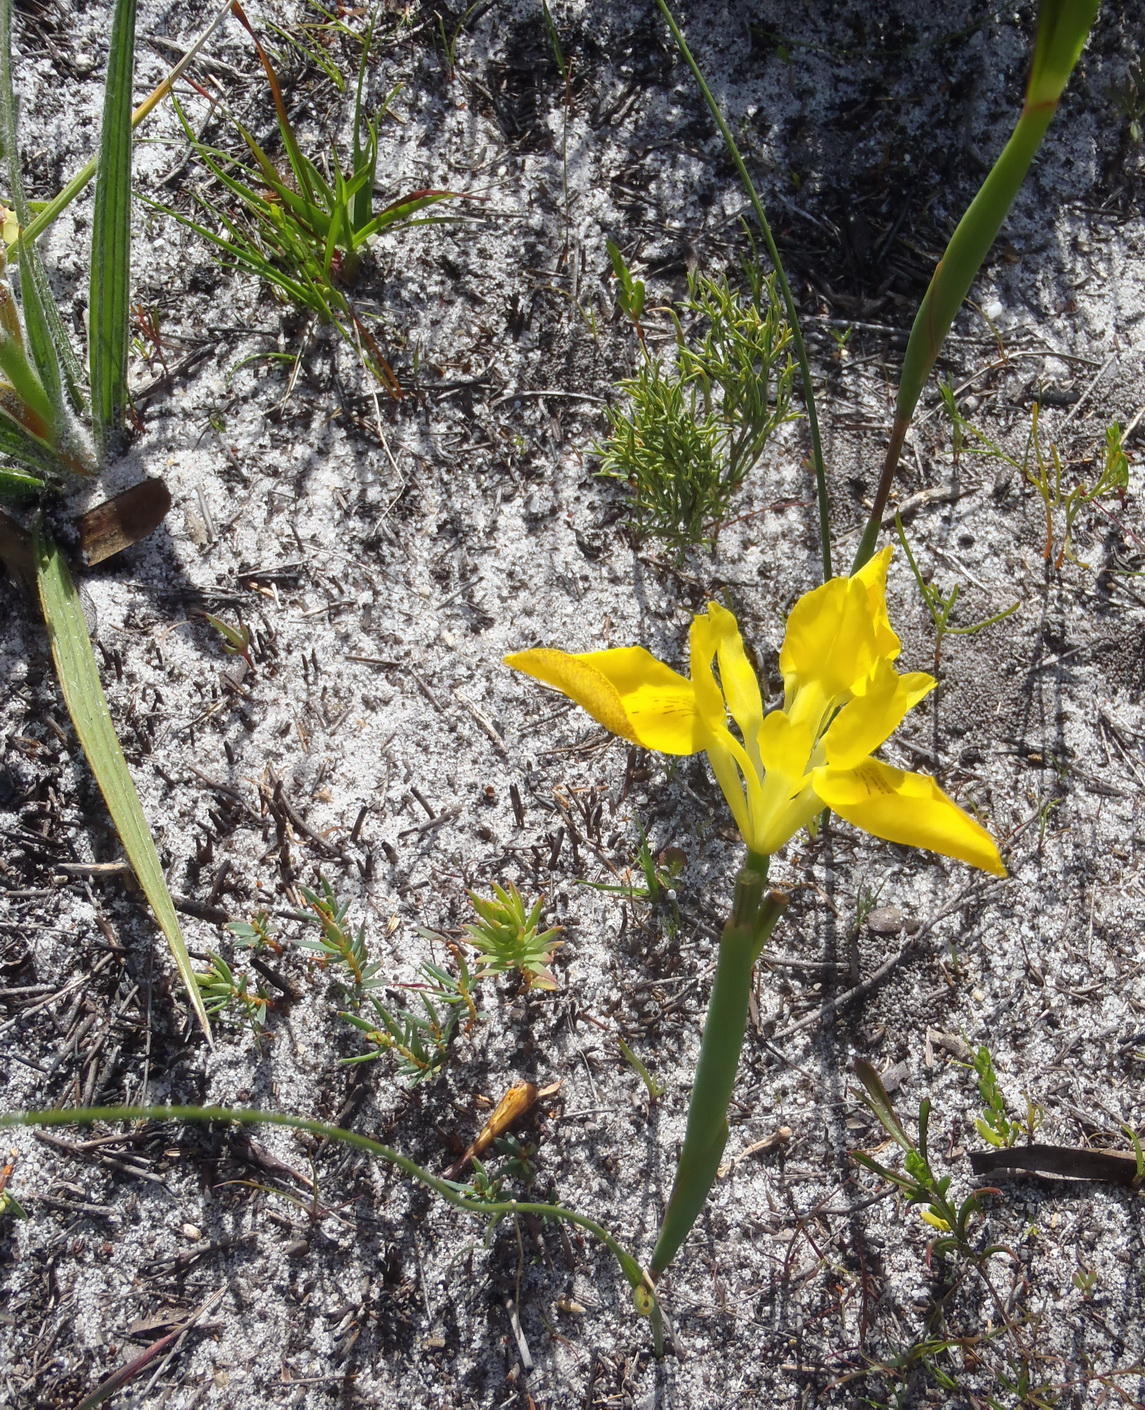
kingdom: Plantae
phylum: Tracheophyta
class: Liliopsida
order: Asparagales
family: Iridaceae
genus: Moraea
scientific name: Moraea neglecta
